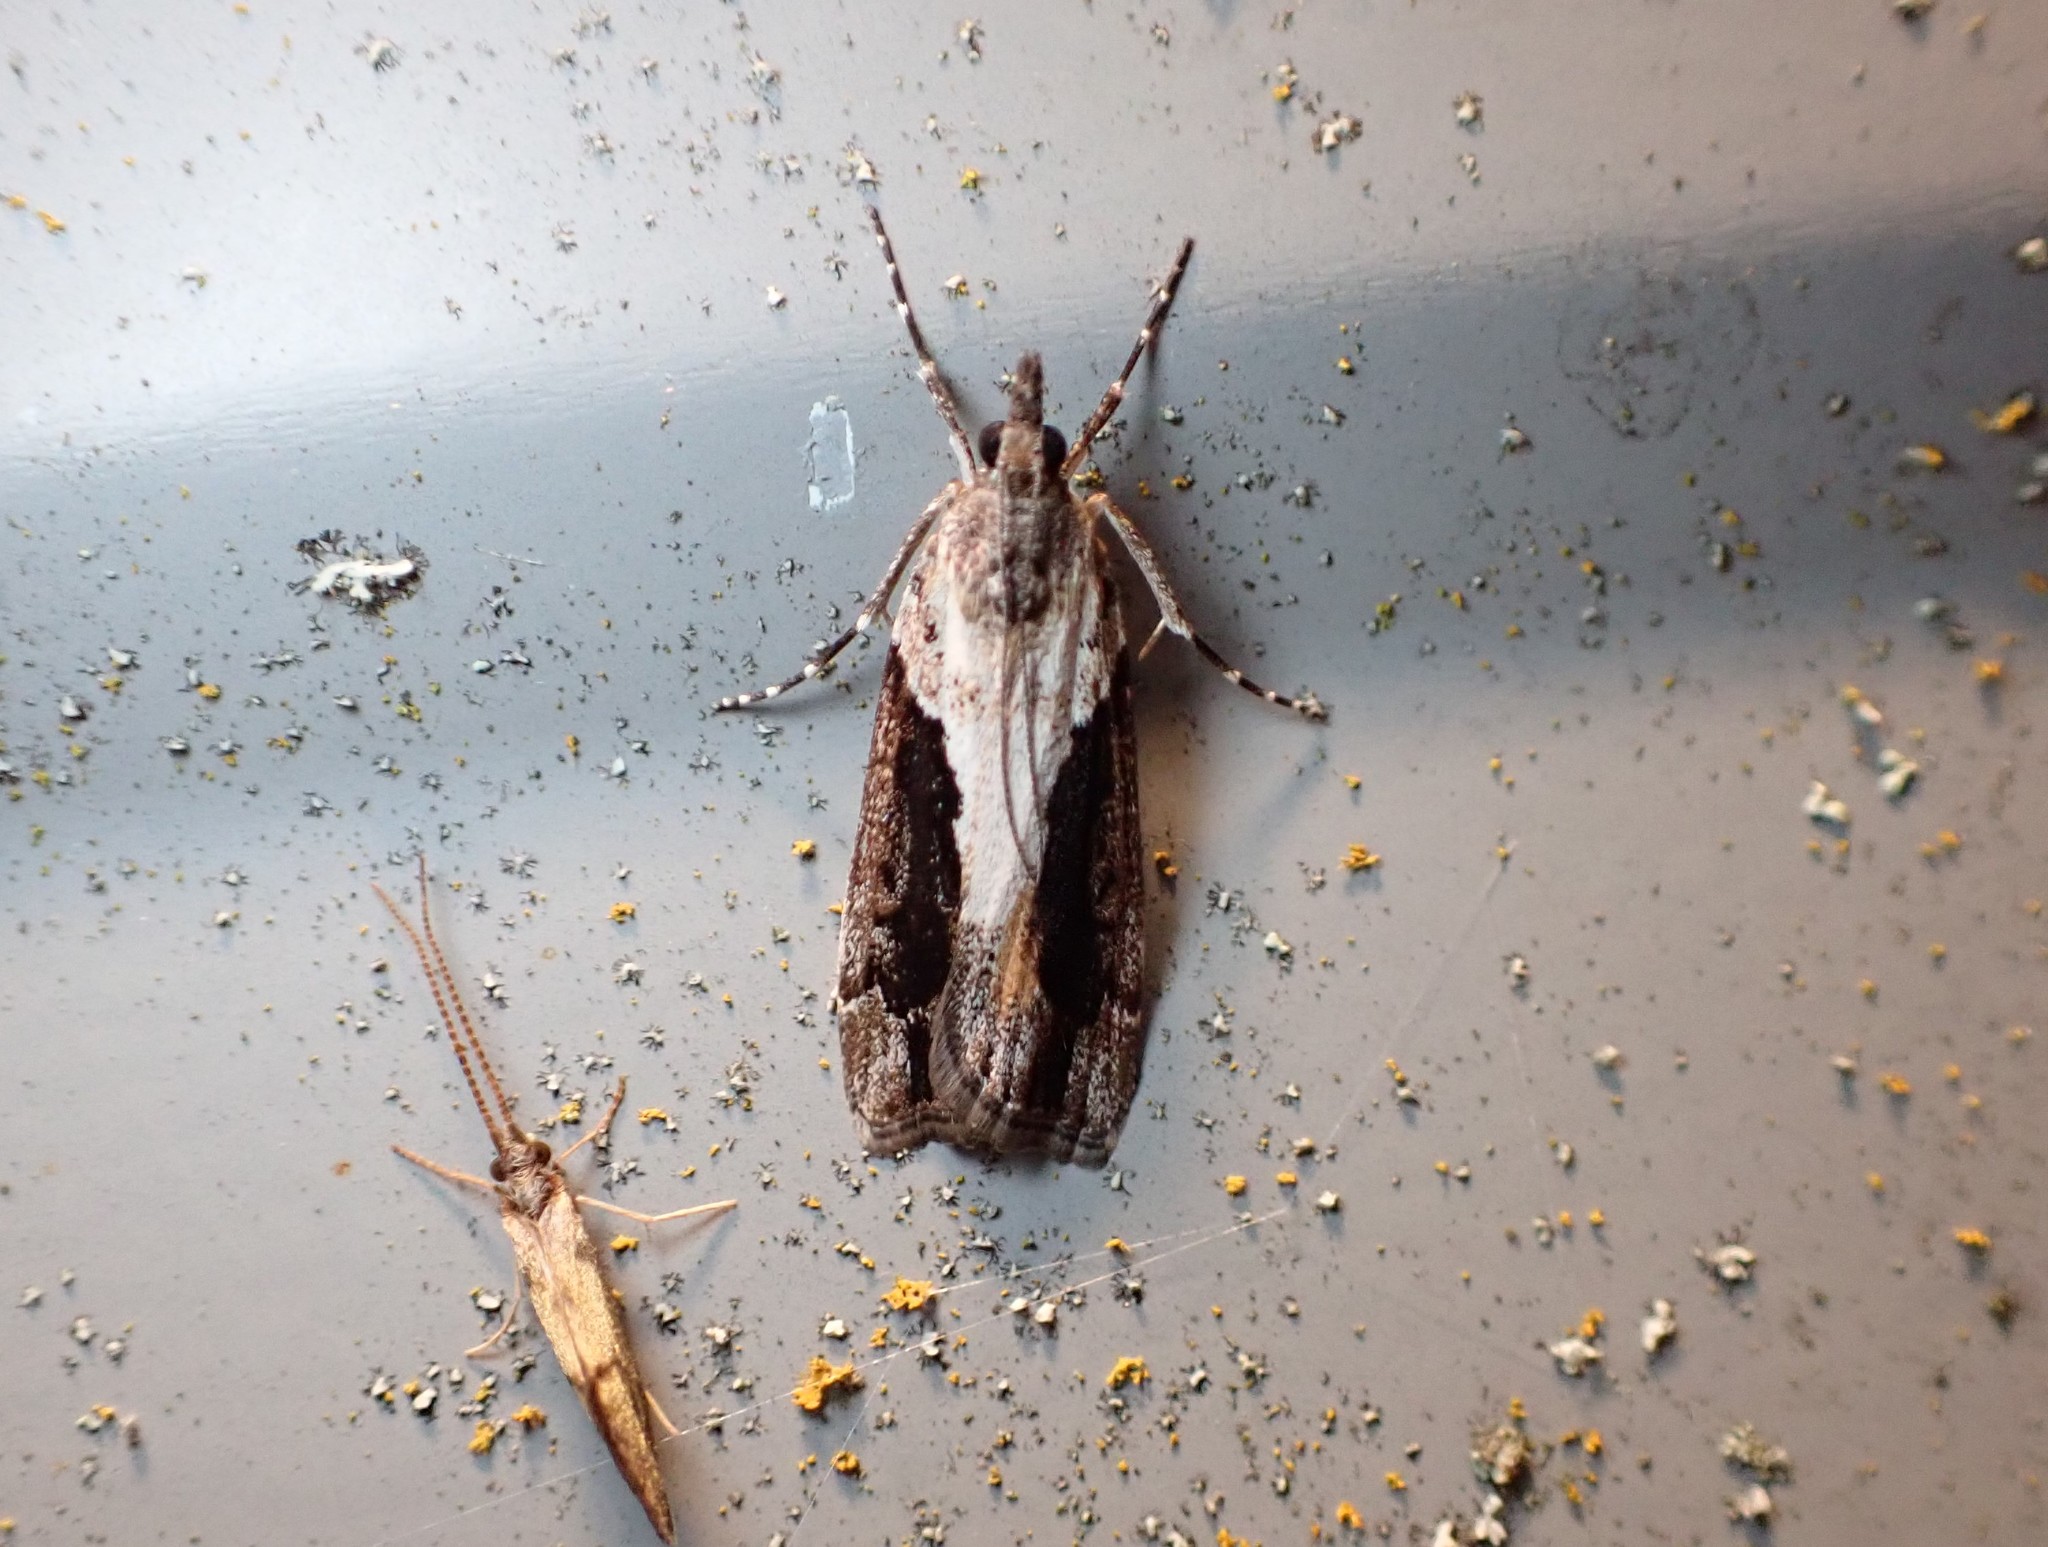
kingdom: Animalia
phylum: Arthropoda
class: Insecta
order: Lepidoptera
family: Crambidae
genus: Eudonia
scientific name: Eudonia submarginalis
